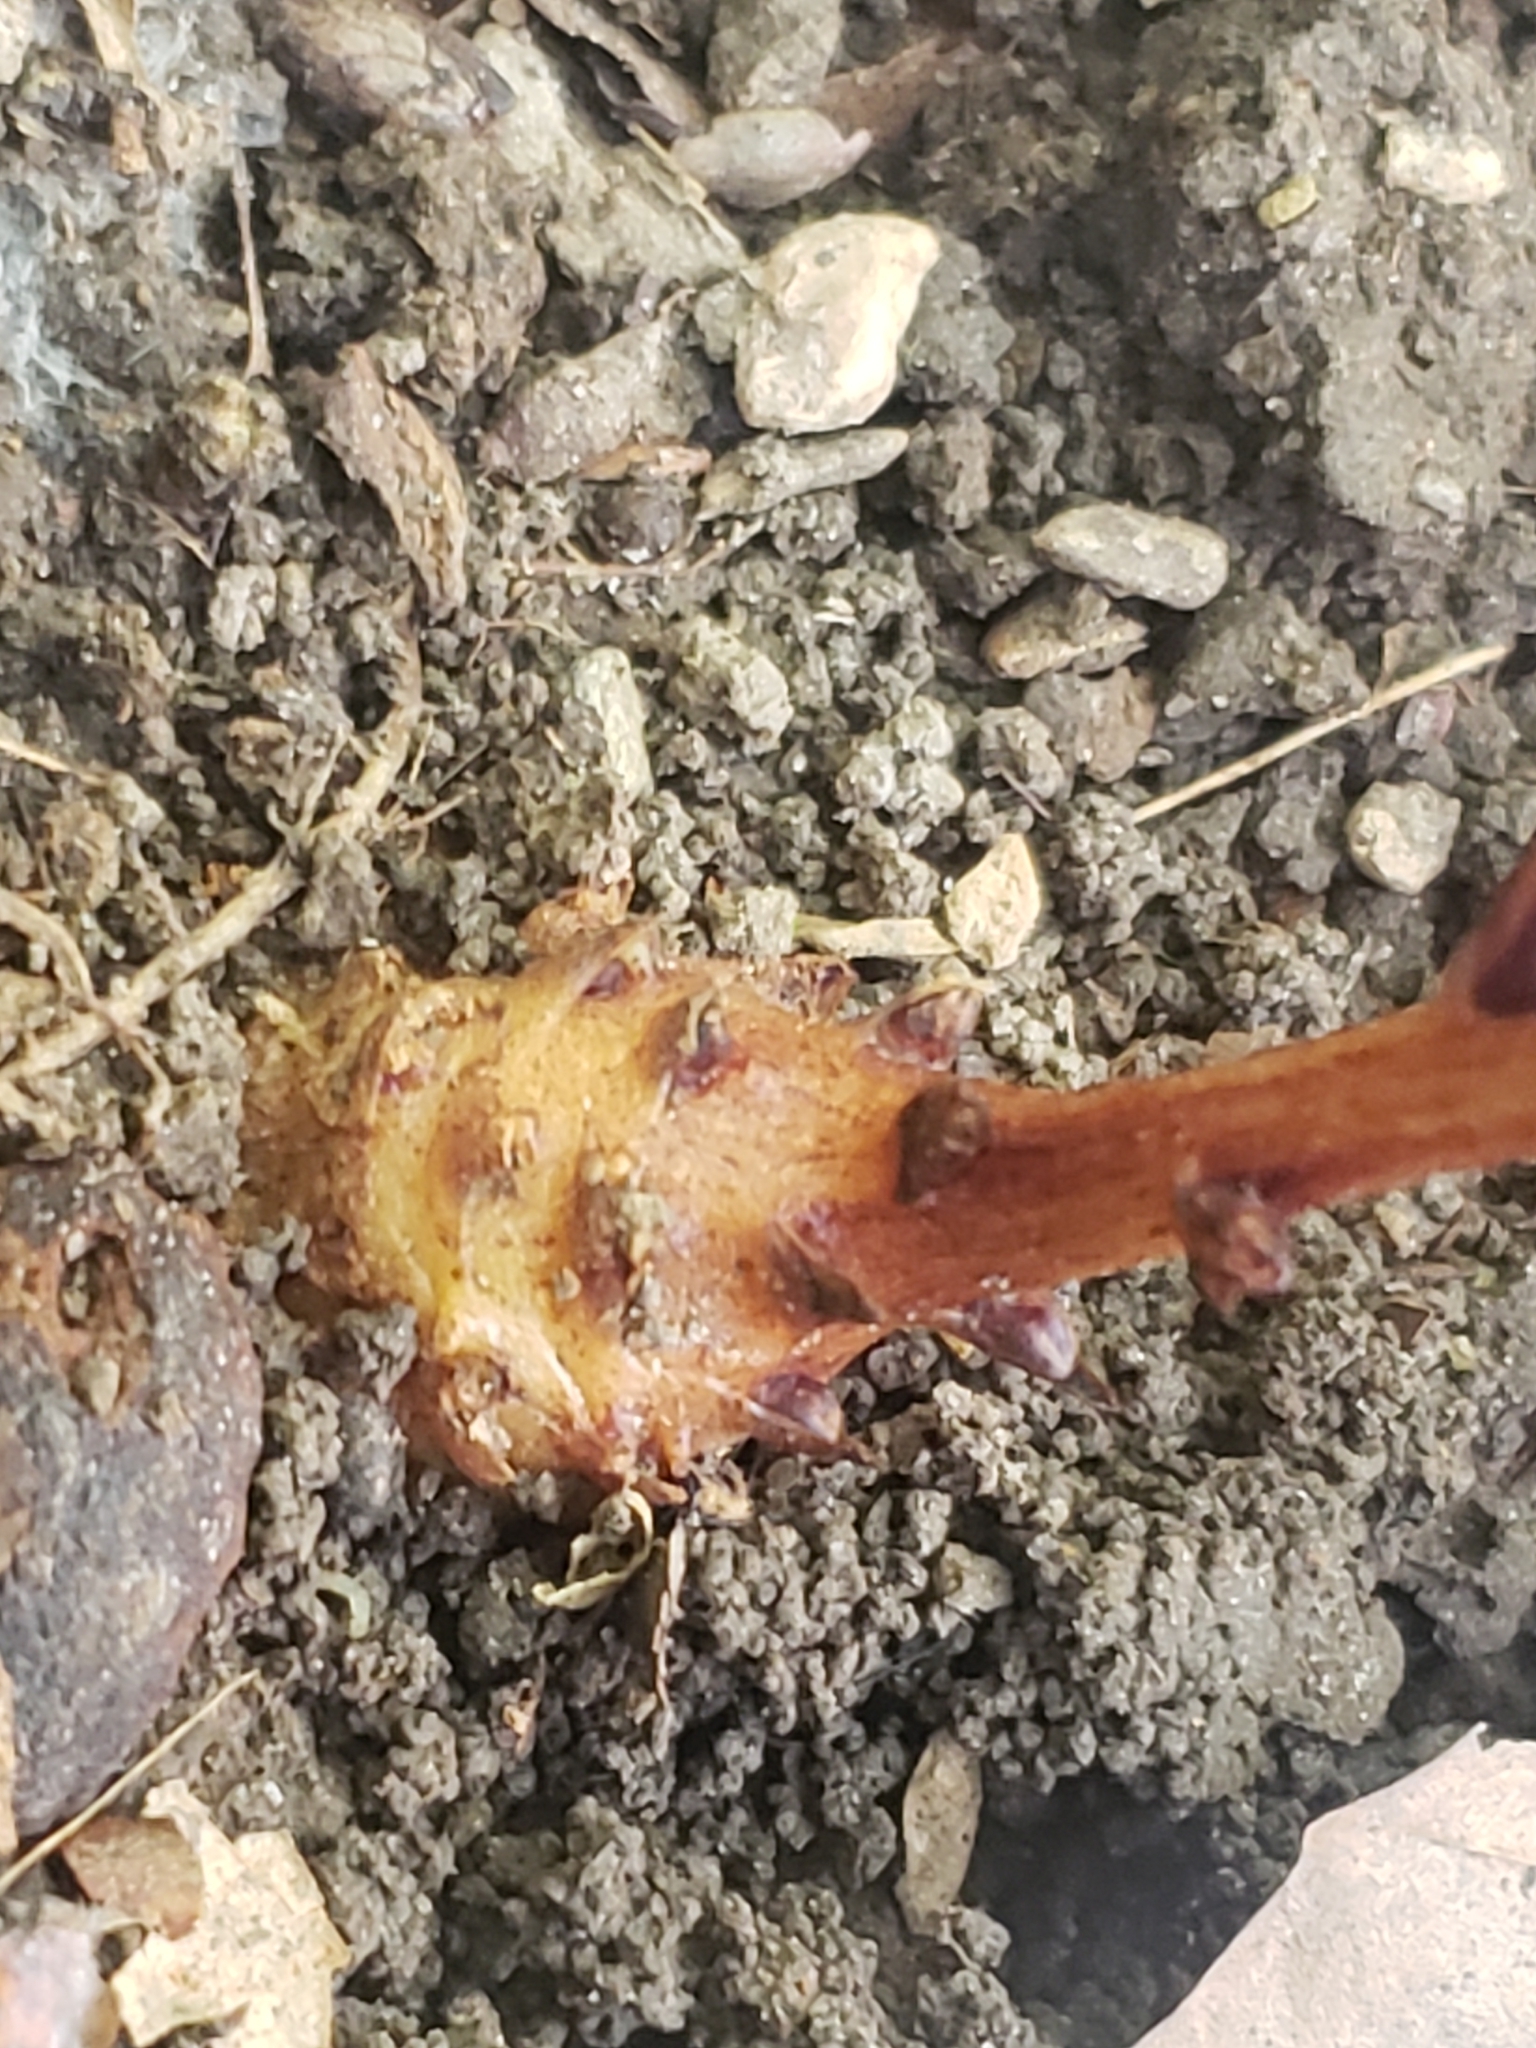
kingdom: Plantae
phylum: Tracheophyta
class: Magnoliopsida
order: Lamiales
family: Orobanchaceae
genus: Epifagus
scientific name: Epifagus virginiana
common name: Beechdrops
